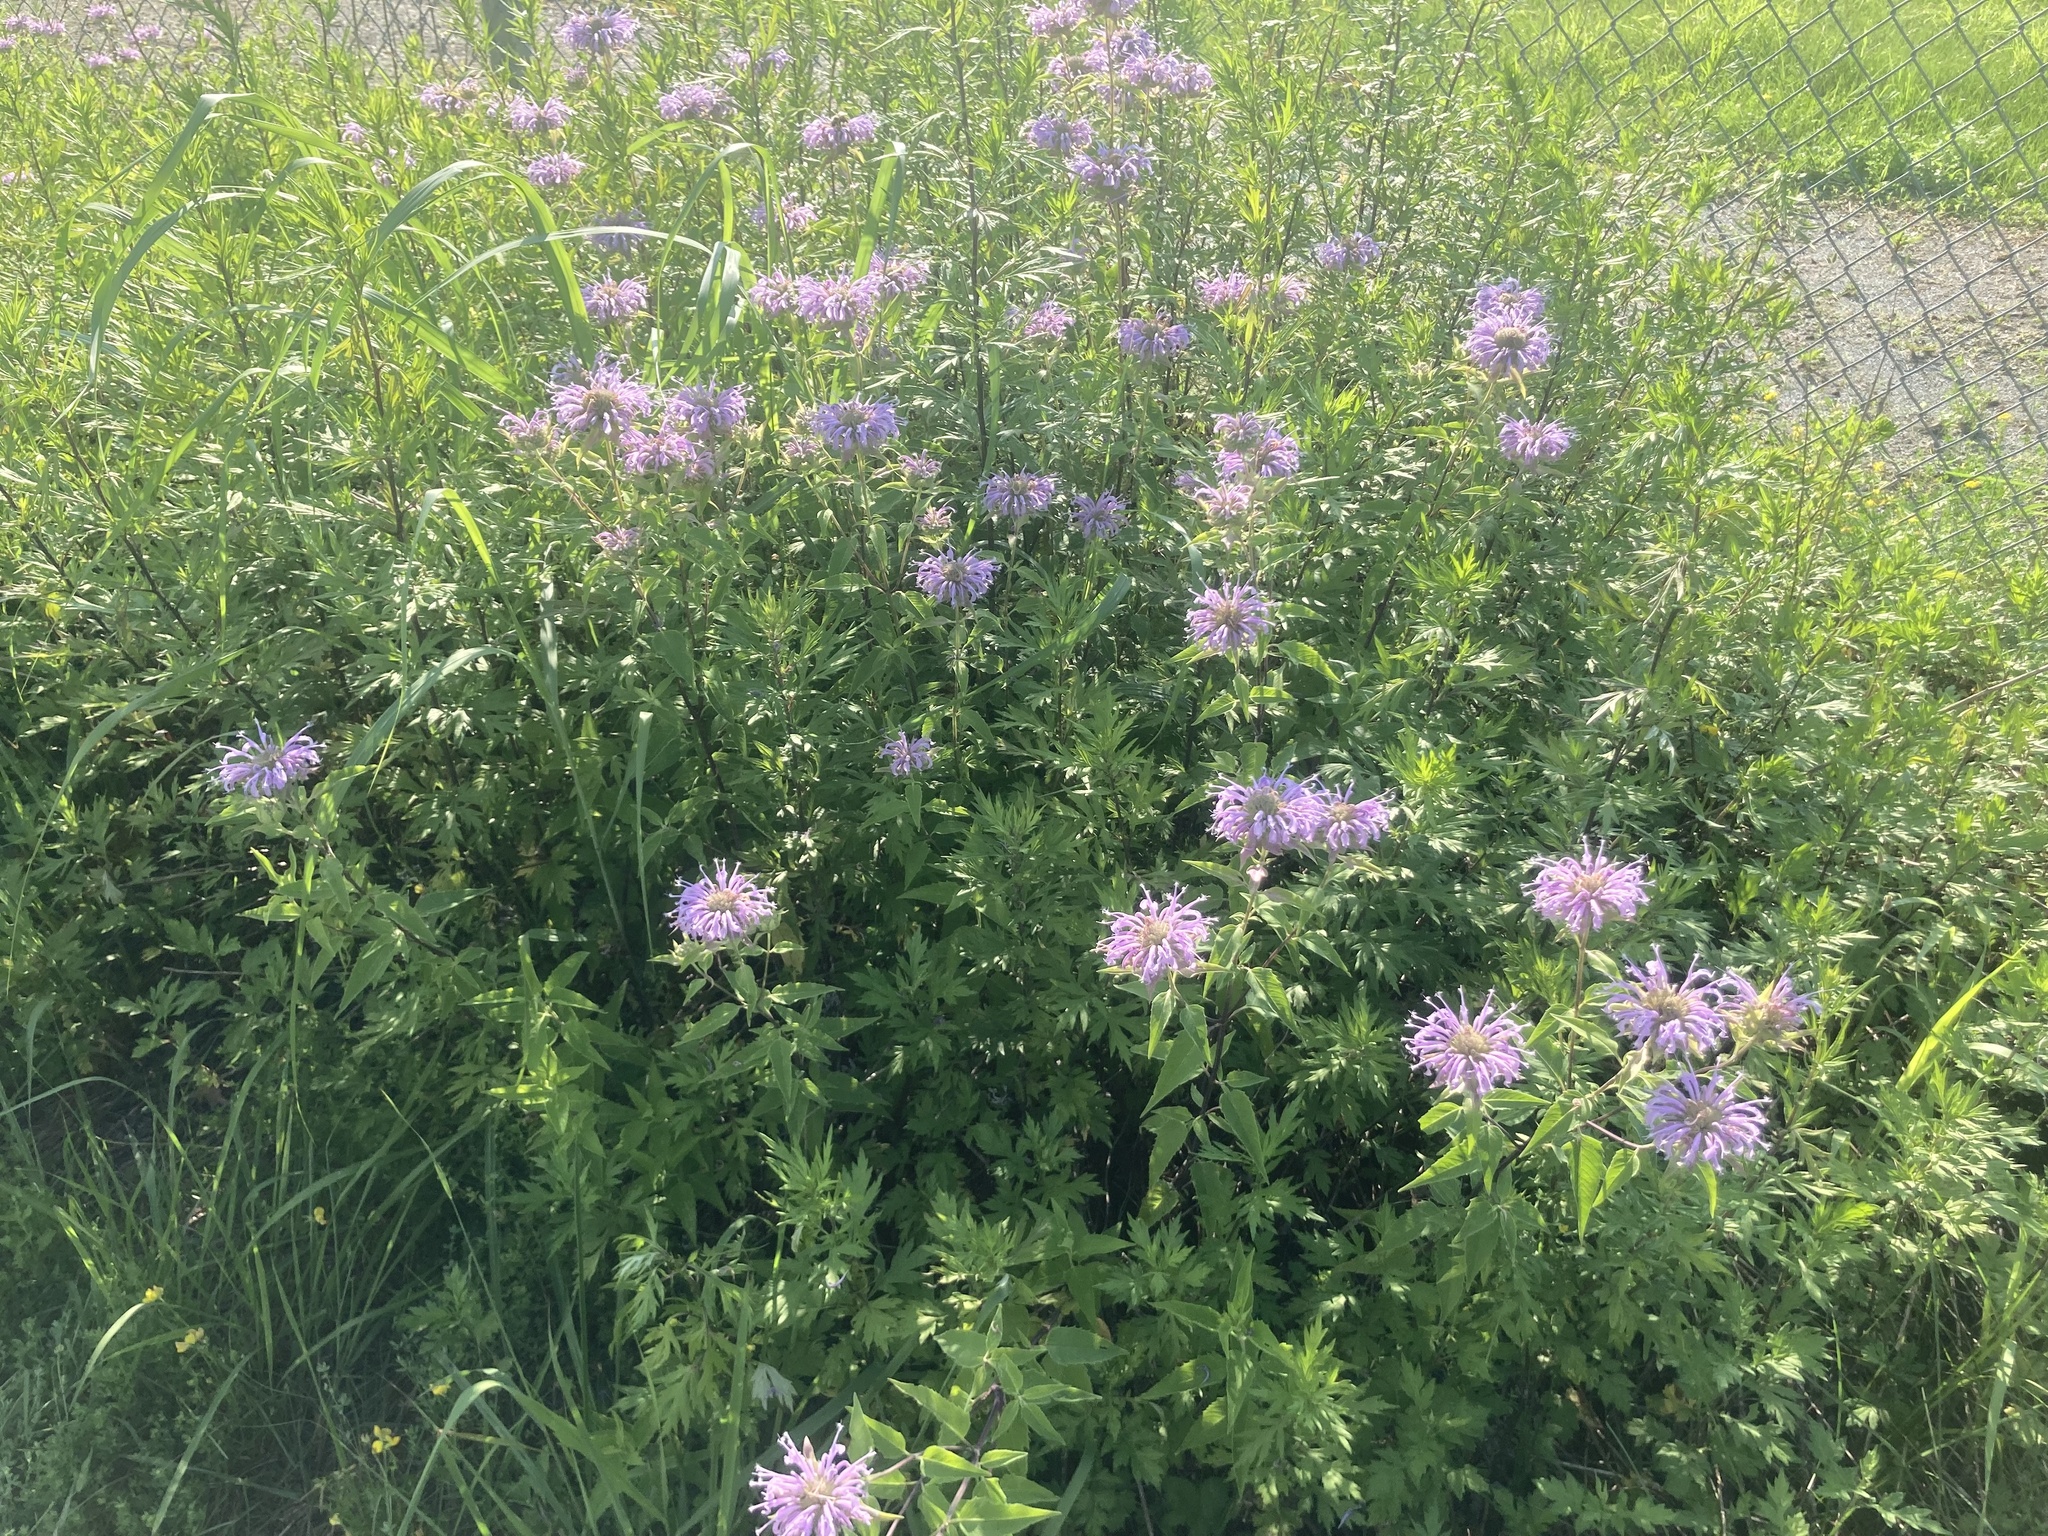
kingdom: Plantae
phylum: Tracheophyta
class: Magnoliopsida
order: Lamiales
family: Lamiaceae
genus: Monarda
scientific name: Monarda fistulosa
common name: Purple beebalm
